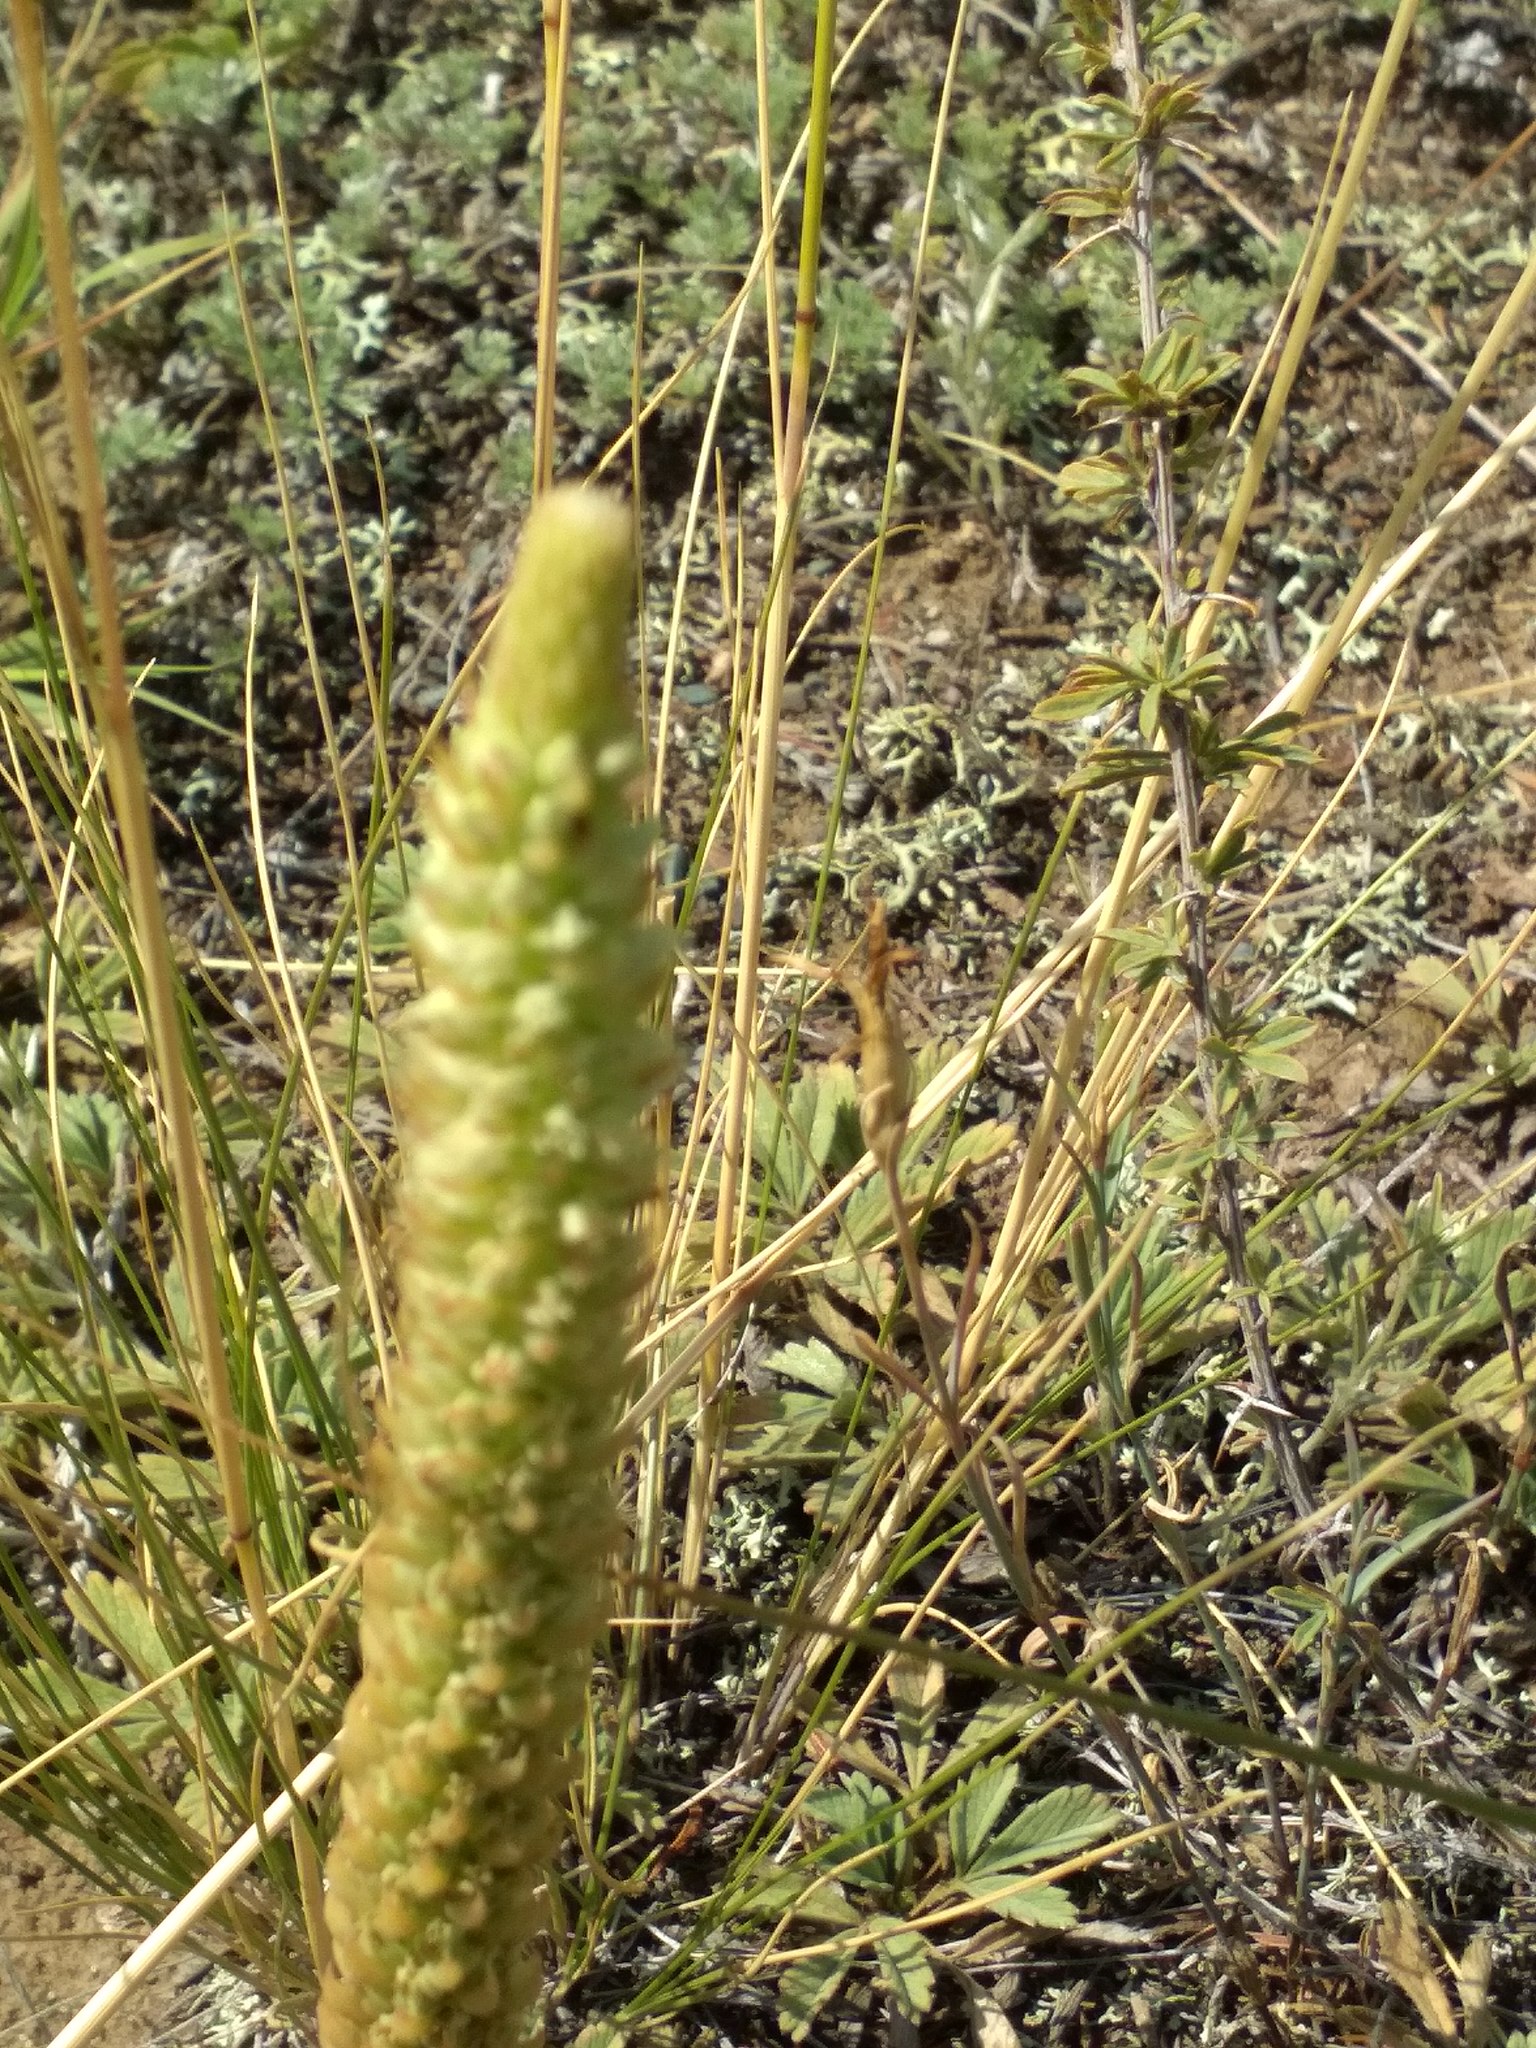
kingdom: Plantae
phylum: Tracheophyta
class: Magnoliopsida
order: Saxifragales
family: Crassulaceae
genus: Orostachys
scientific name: Orostachys spinosa
